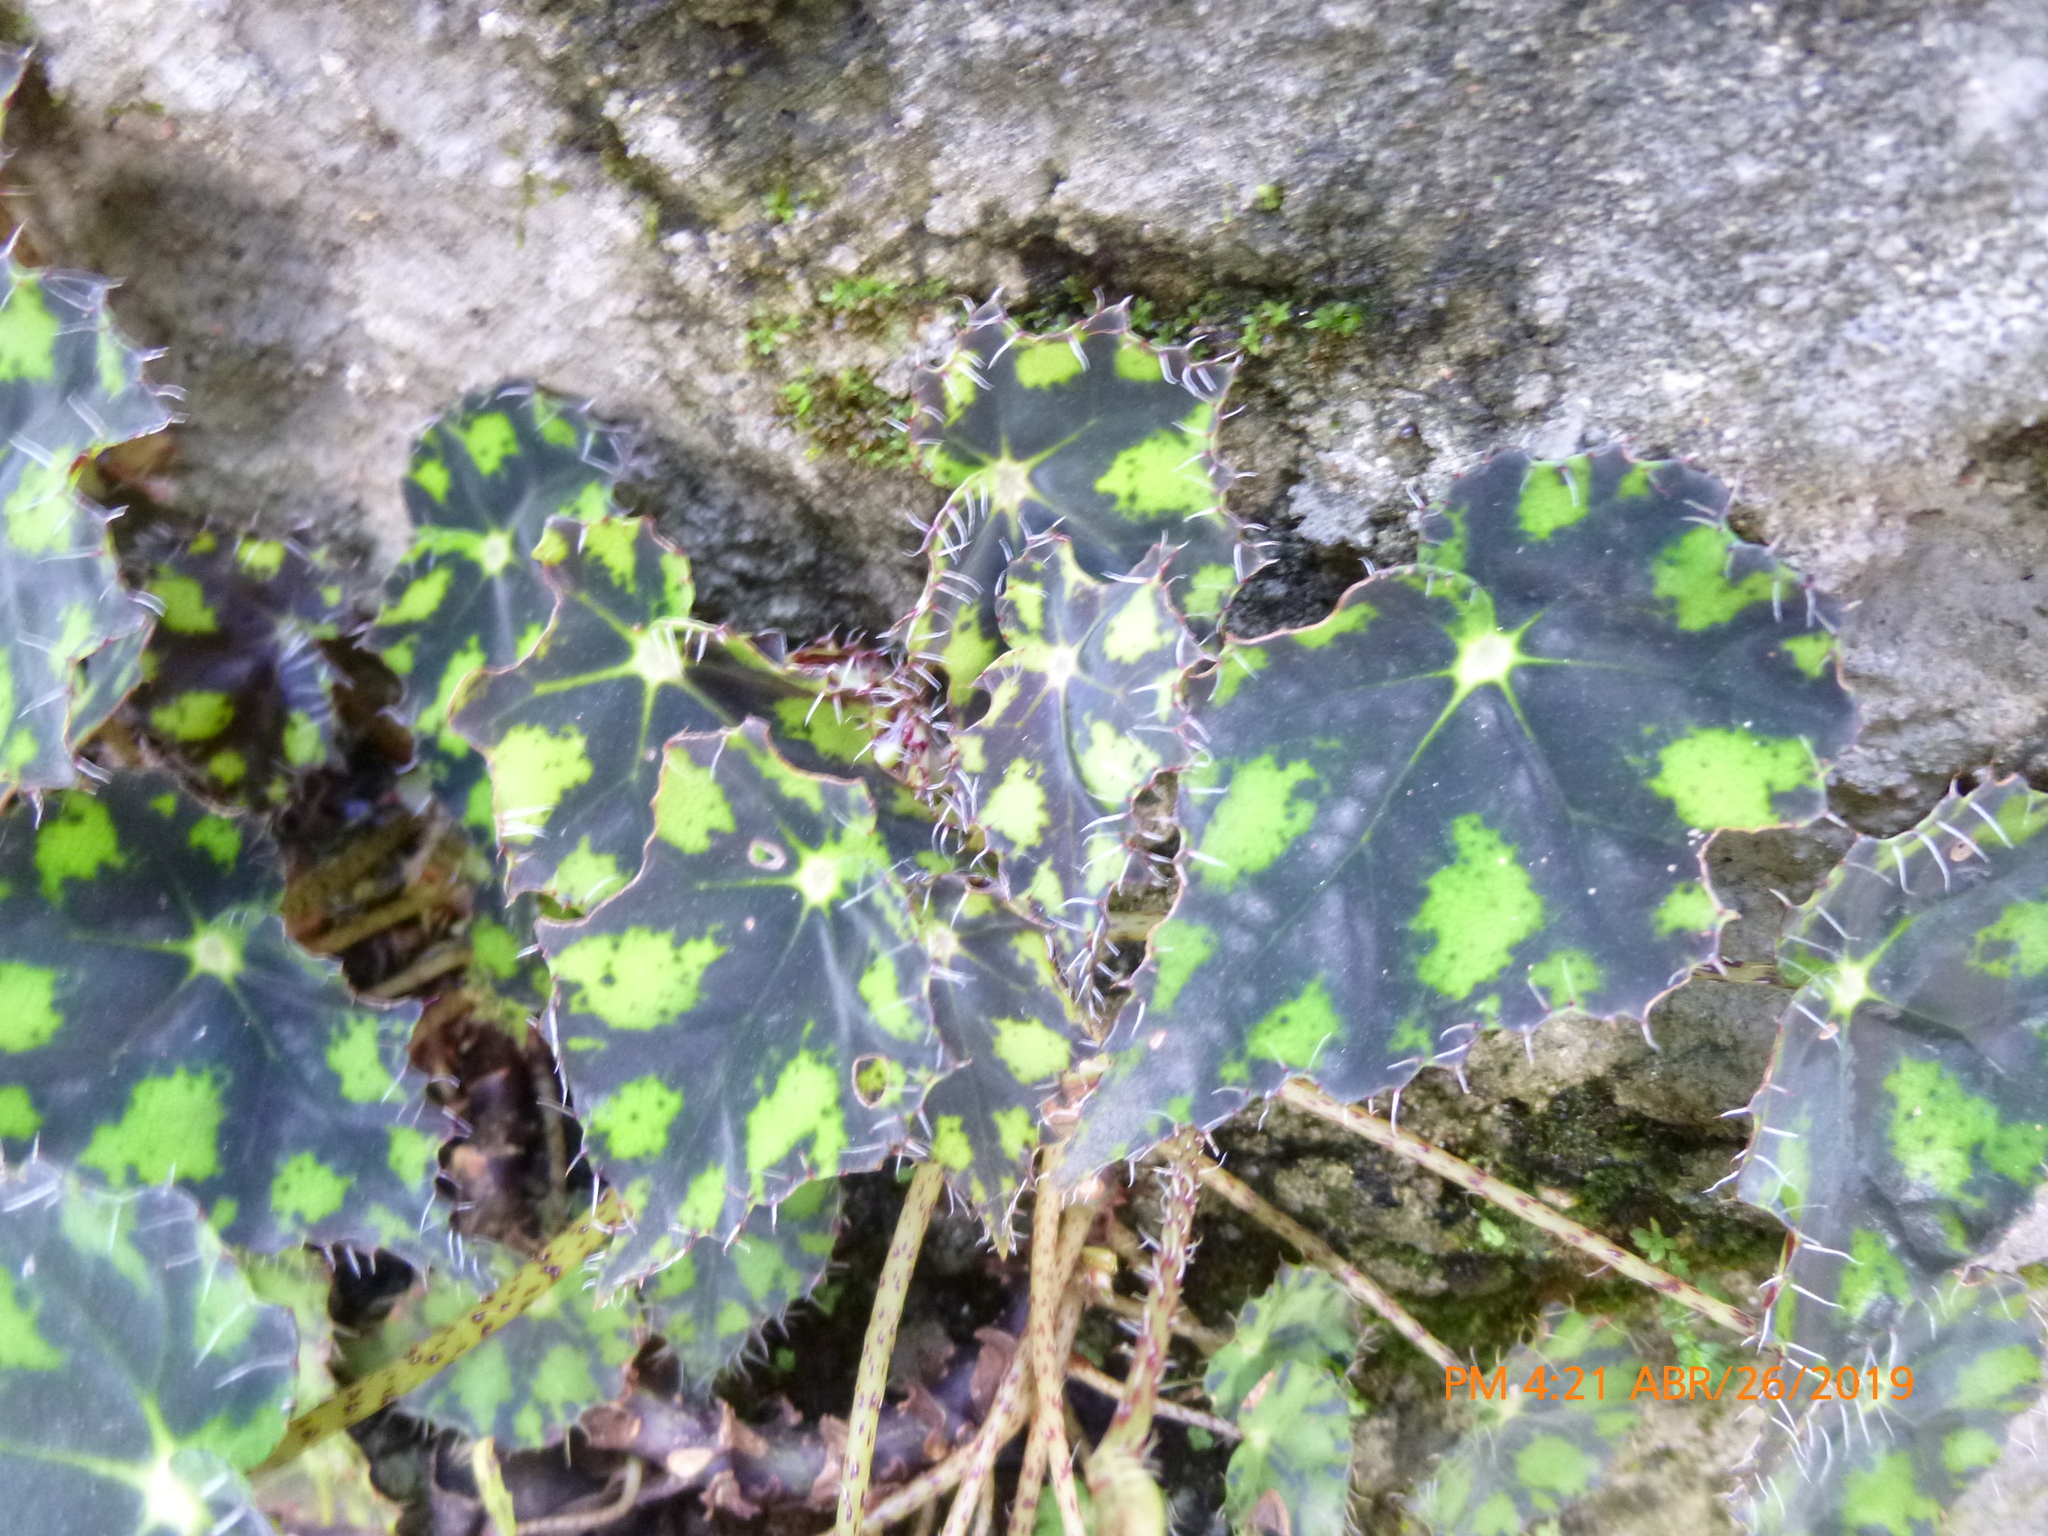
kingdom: Plantae
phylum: Tracheophyta
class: Magnoliopsida
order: Cucurbitales
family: Begoniaceae
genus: Begonia
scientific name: Begonia bowerae
